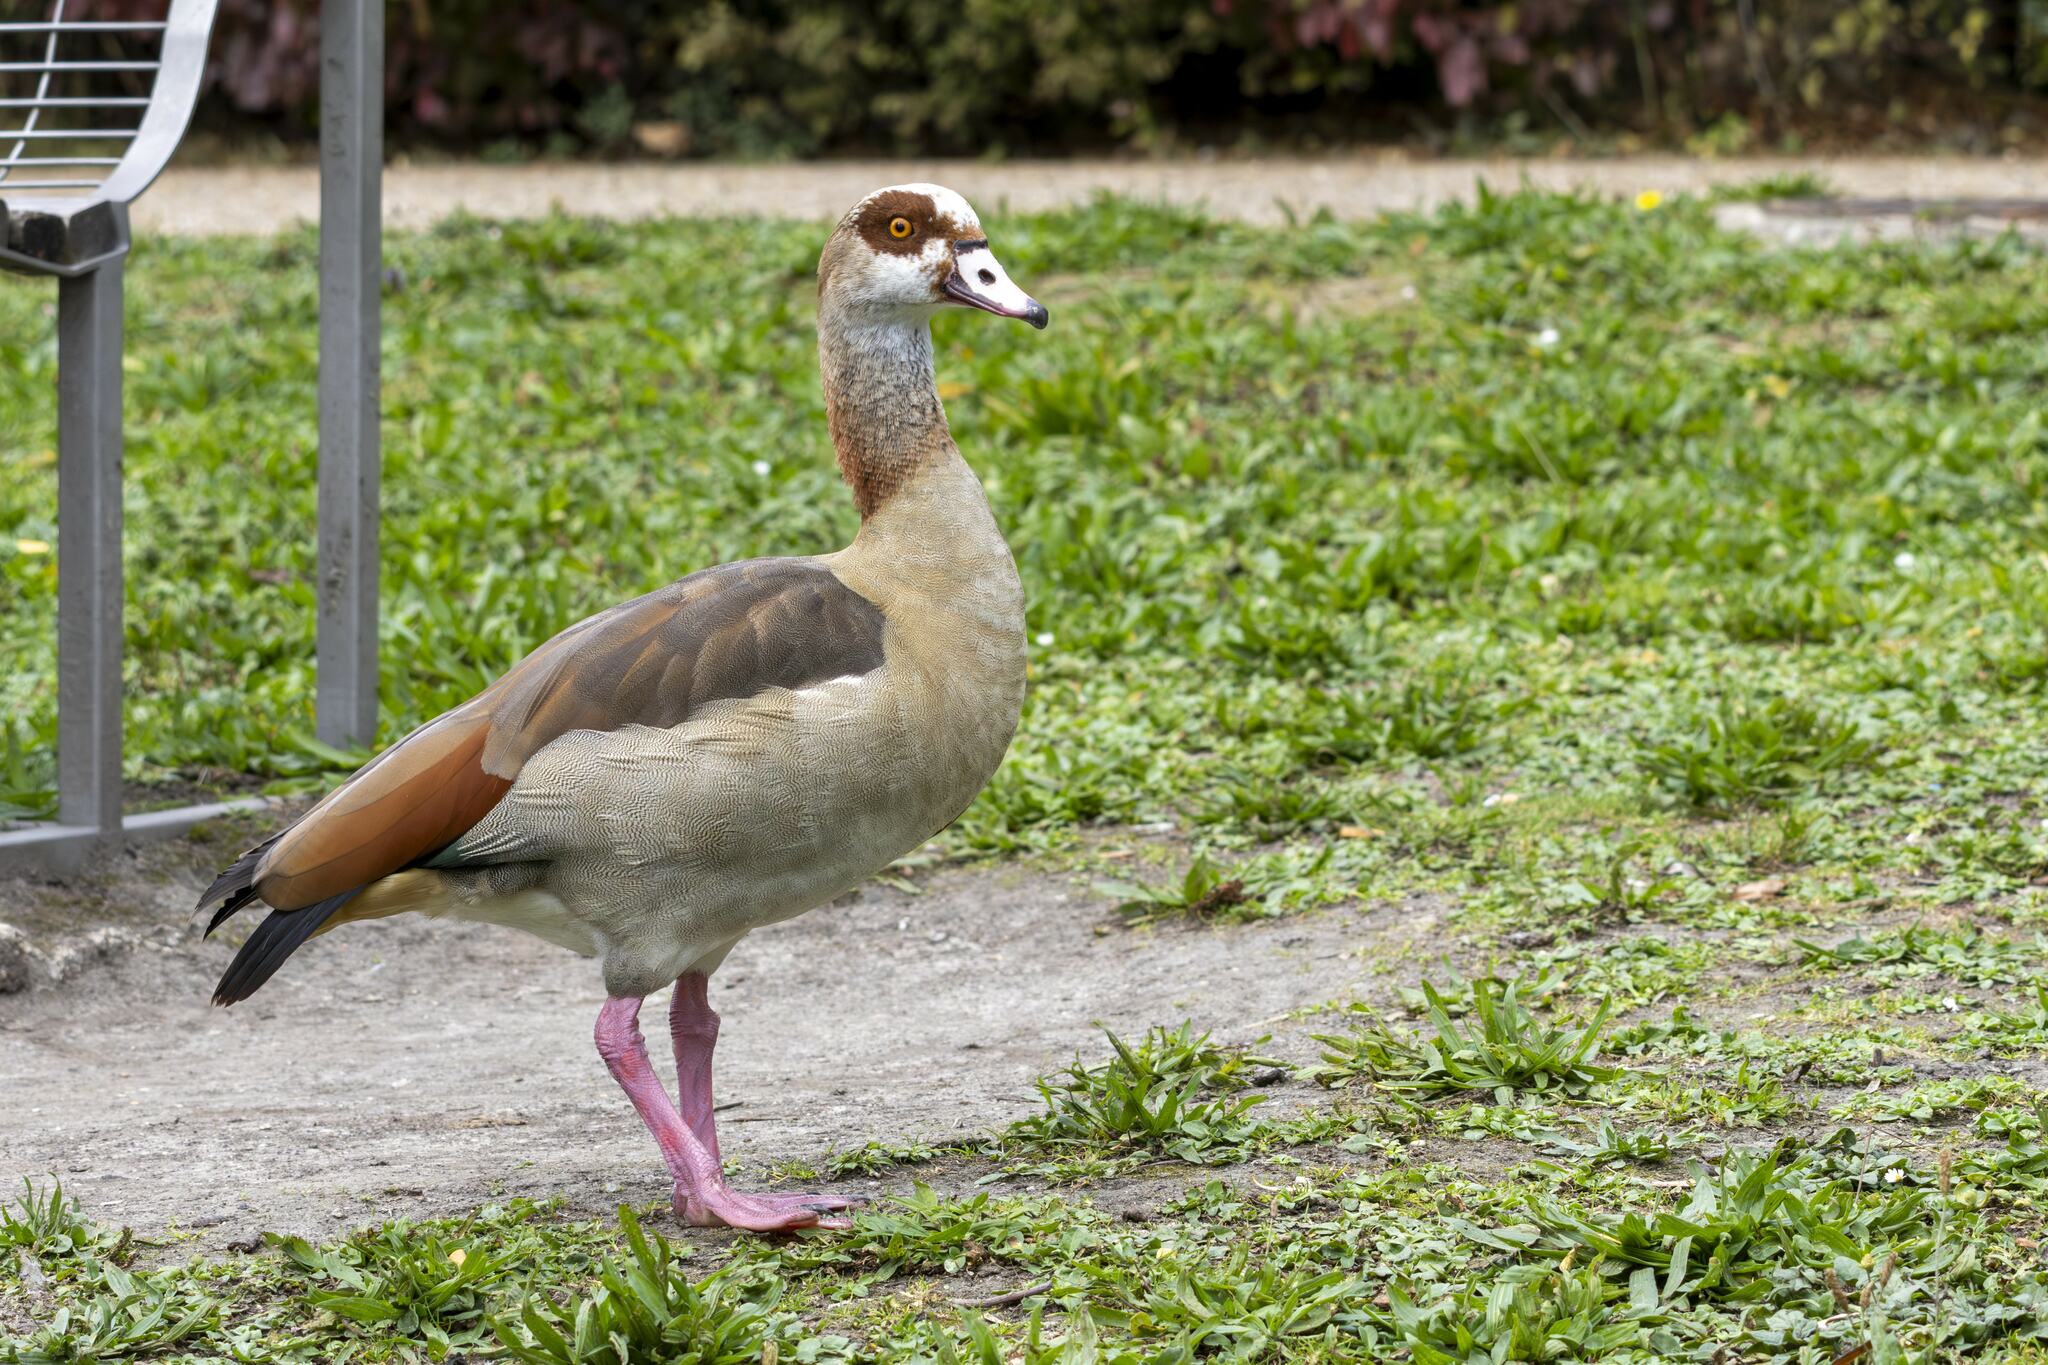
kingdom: Animalia
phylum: Chordata
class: Aves
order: Anseriformes
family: Anatidae
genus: Alopochen
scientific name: Alopochen aegyptiaca
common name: Egyptian goose
